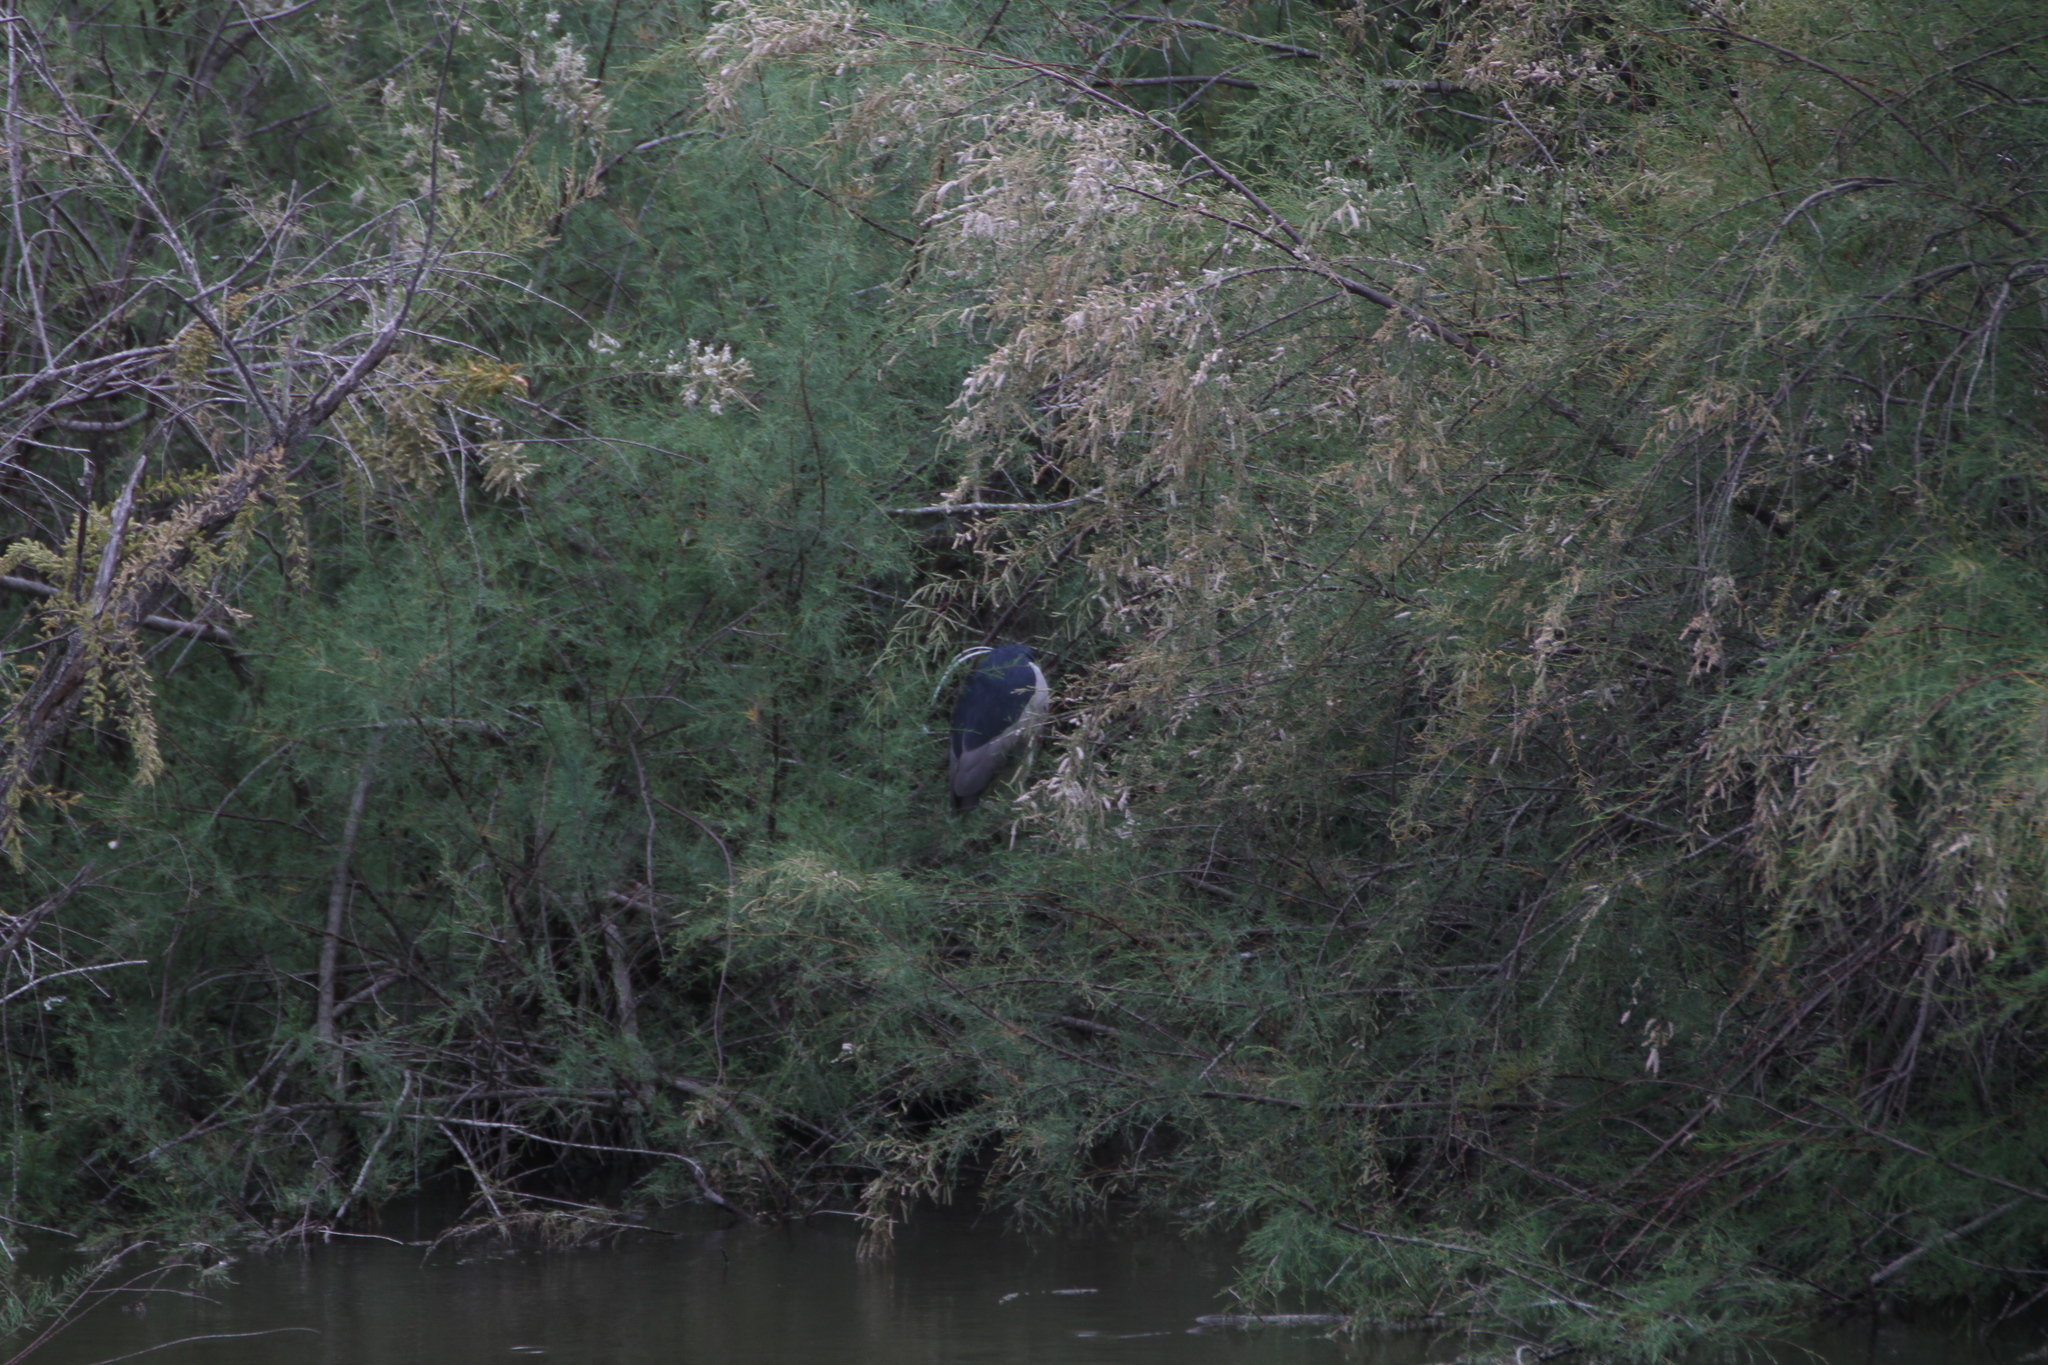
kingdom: Animalia
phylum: Chordata
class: Aves
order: Pelecaniformes
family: Ardeidae
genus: Nycticorax
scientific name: Nycticorax nycticorax
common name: Black-crowned night heron
